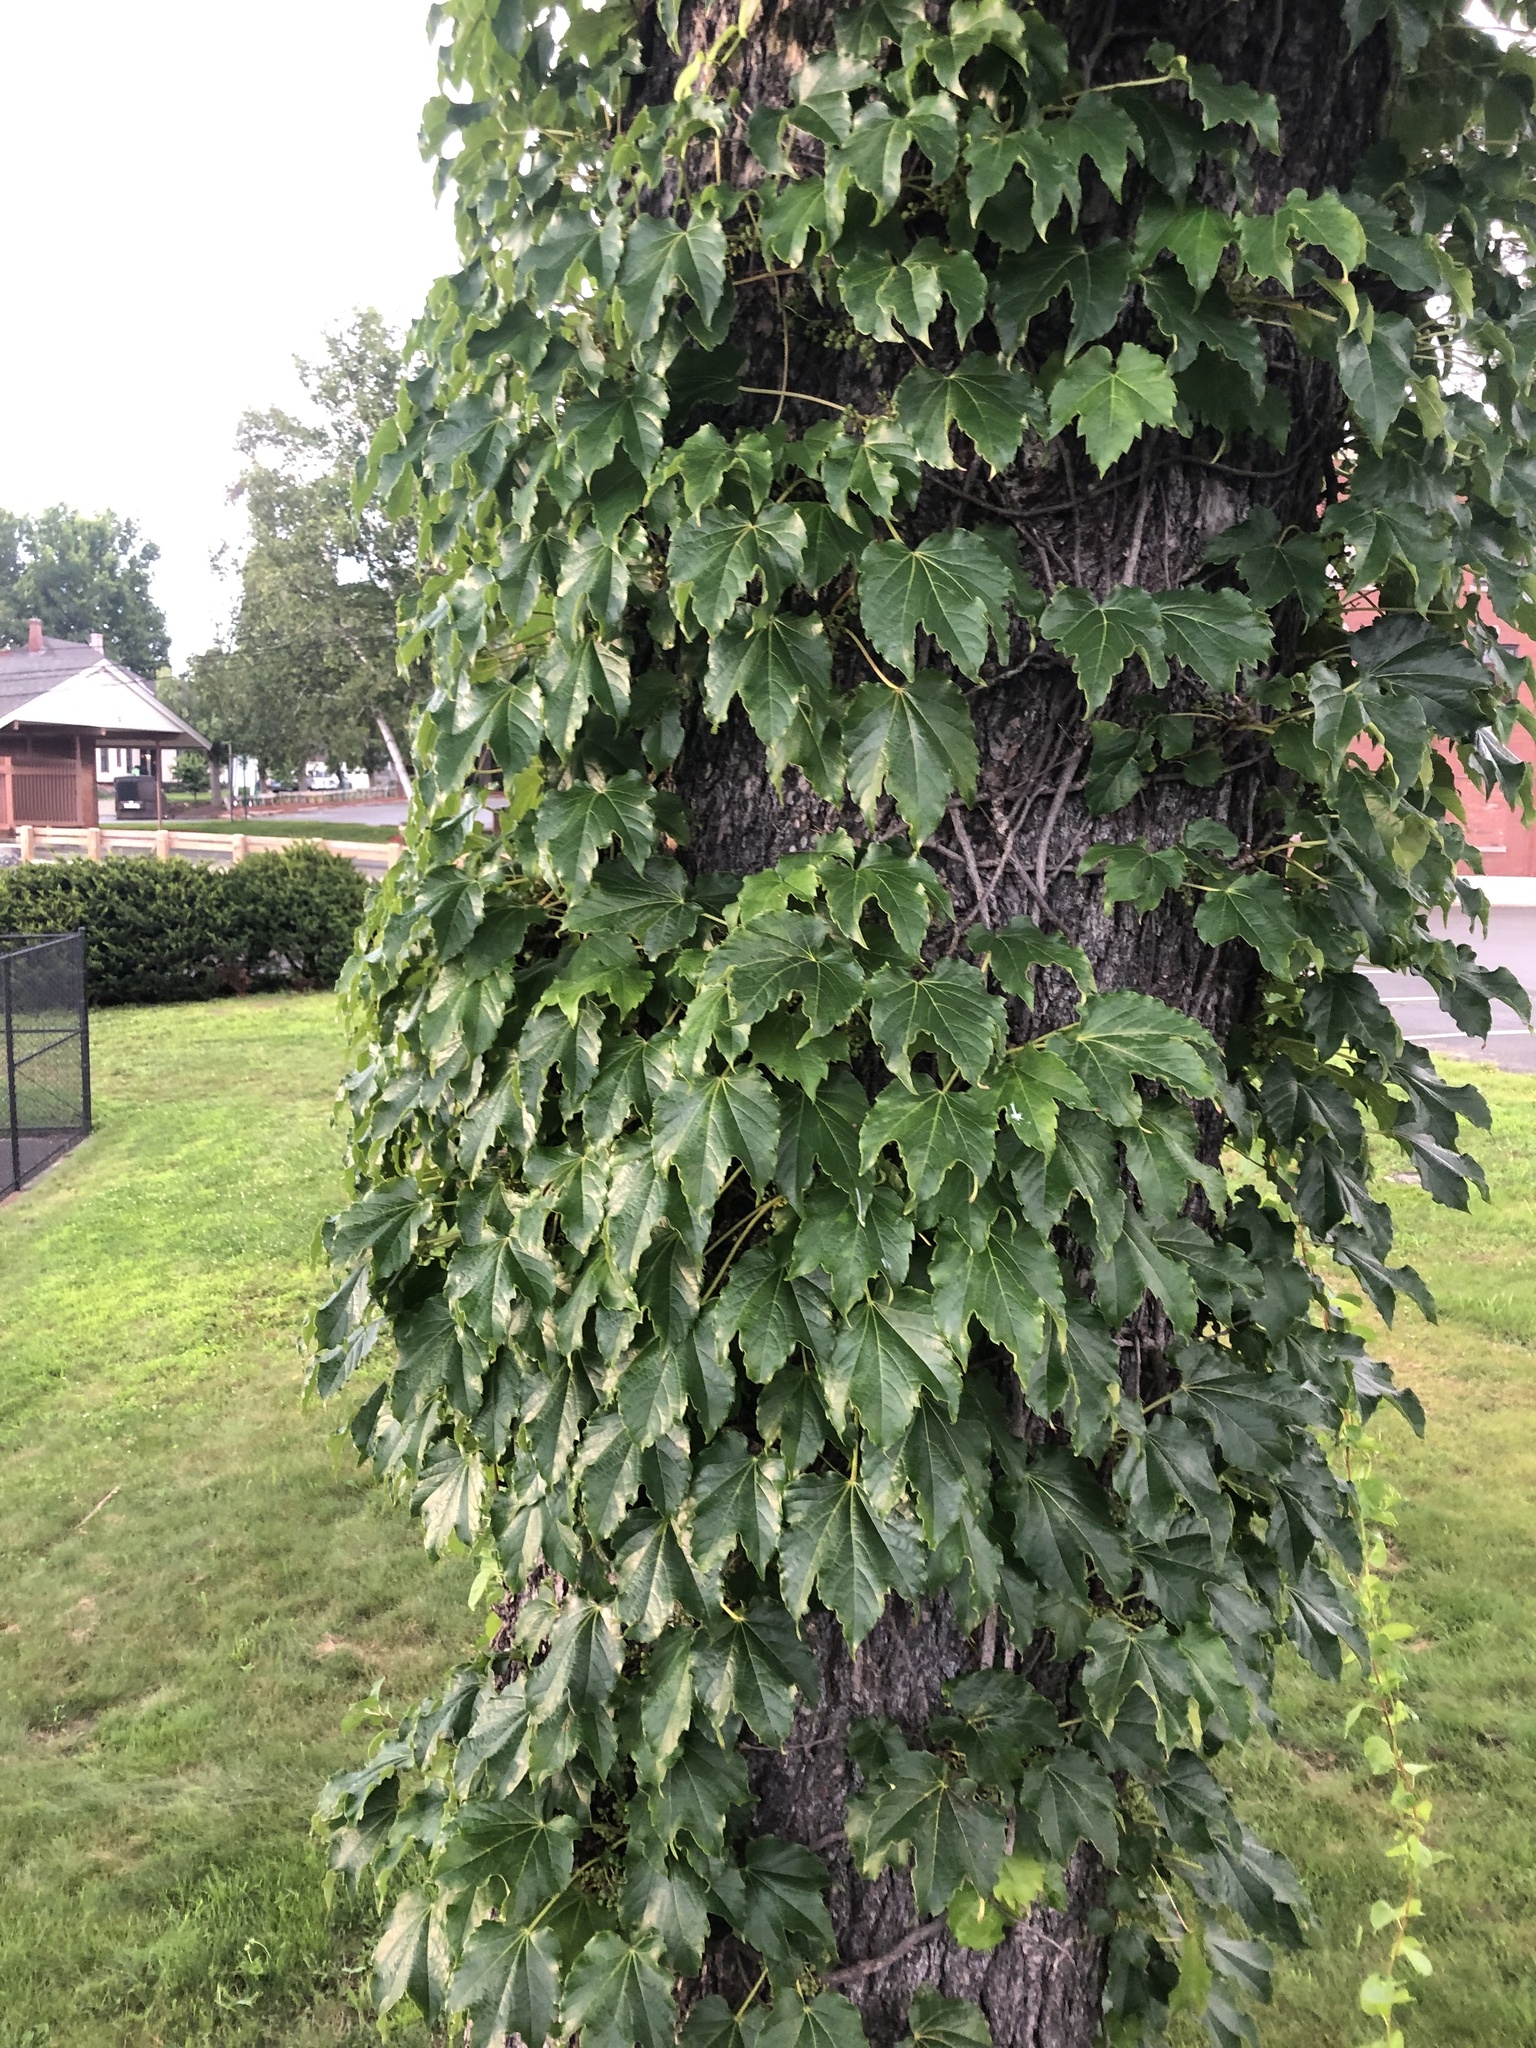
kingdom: Plantae
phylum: Tracheophyta
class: Magnoliopsida
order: Vitales
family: Vitaceae
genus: Parthenocissus
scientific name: Parthenocissus tricuspidata
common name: Boston ivy
